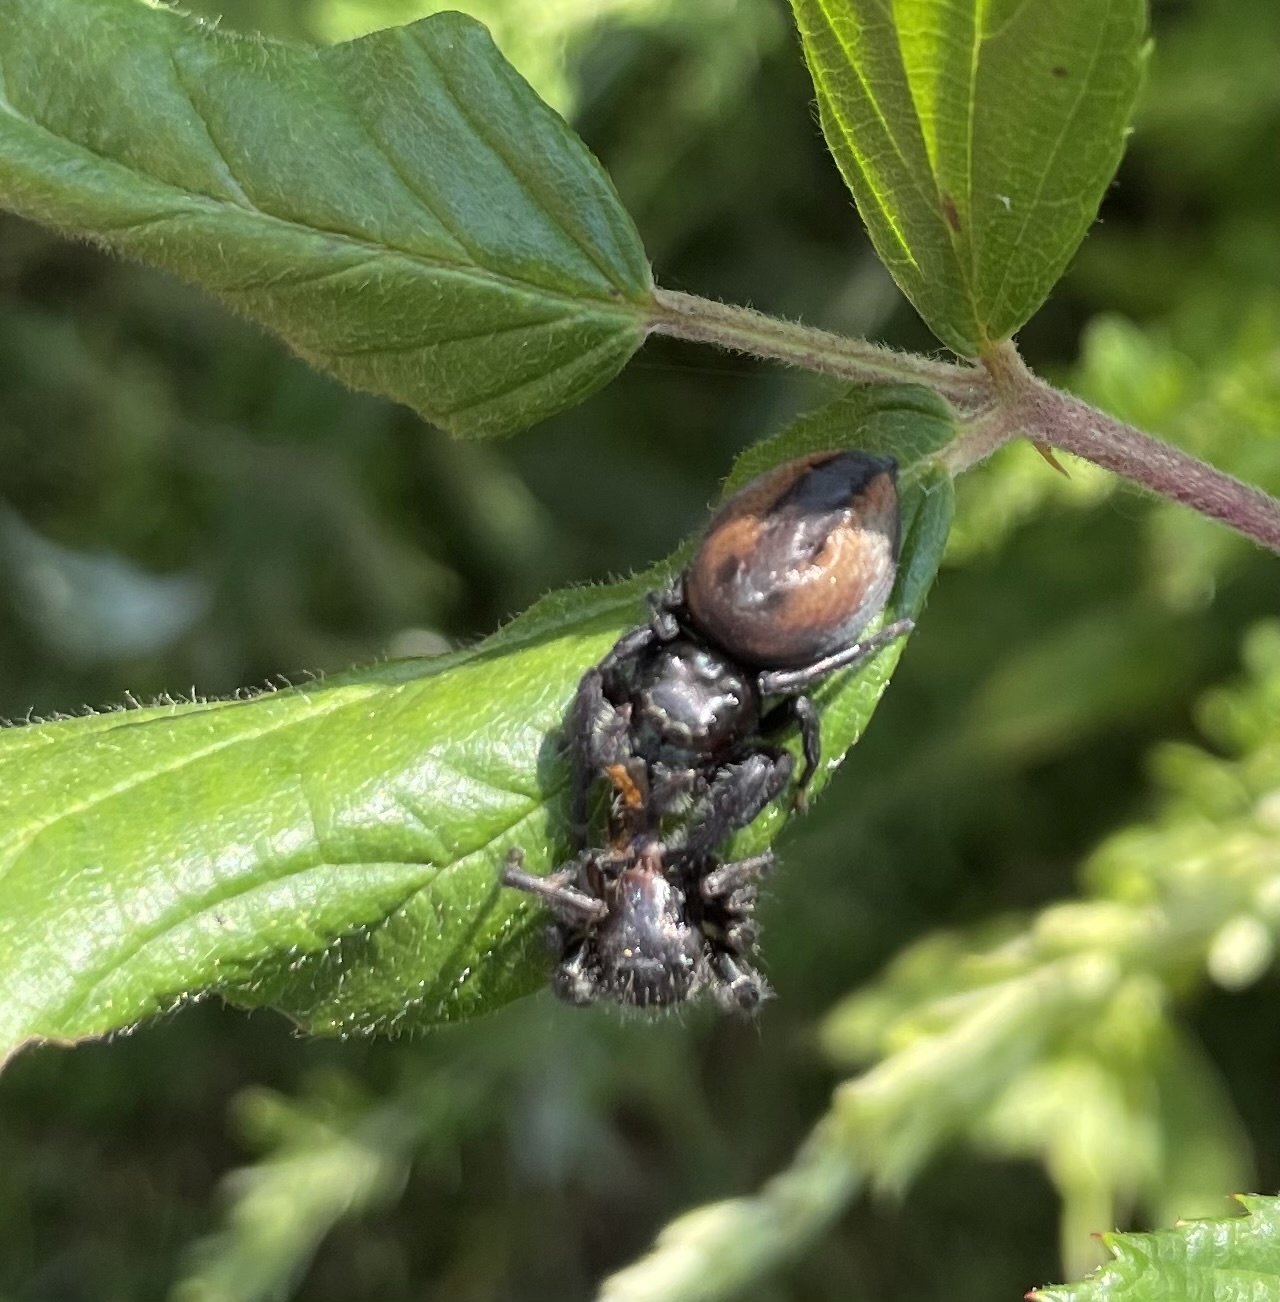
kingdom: Animalia
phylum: Arthropoda
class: Arachnida
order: Araneae
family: Salticidae
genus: Phidippus
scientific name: Phidippus clarus
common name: Brilliant jumping spider
